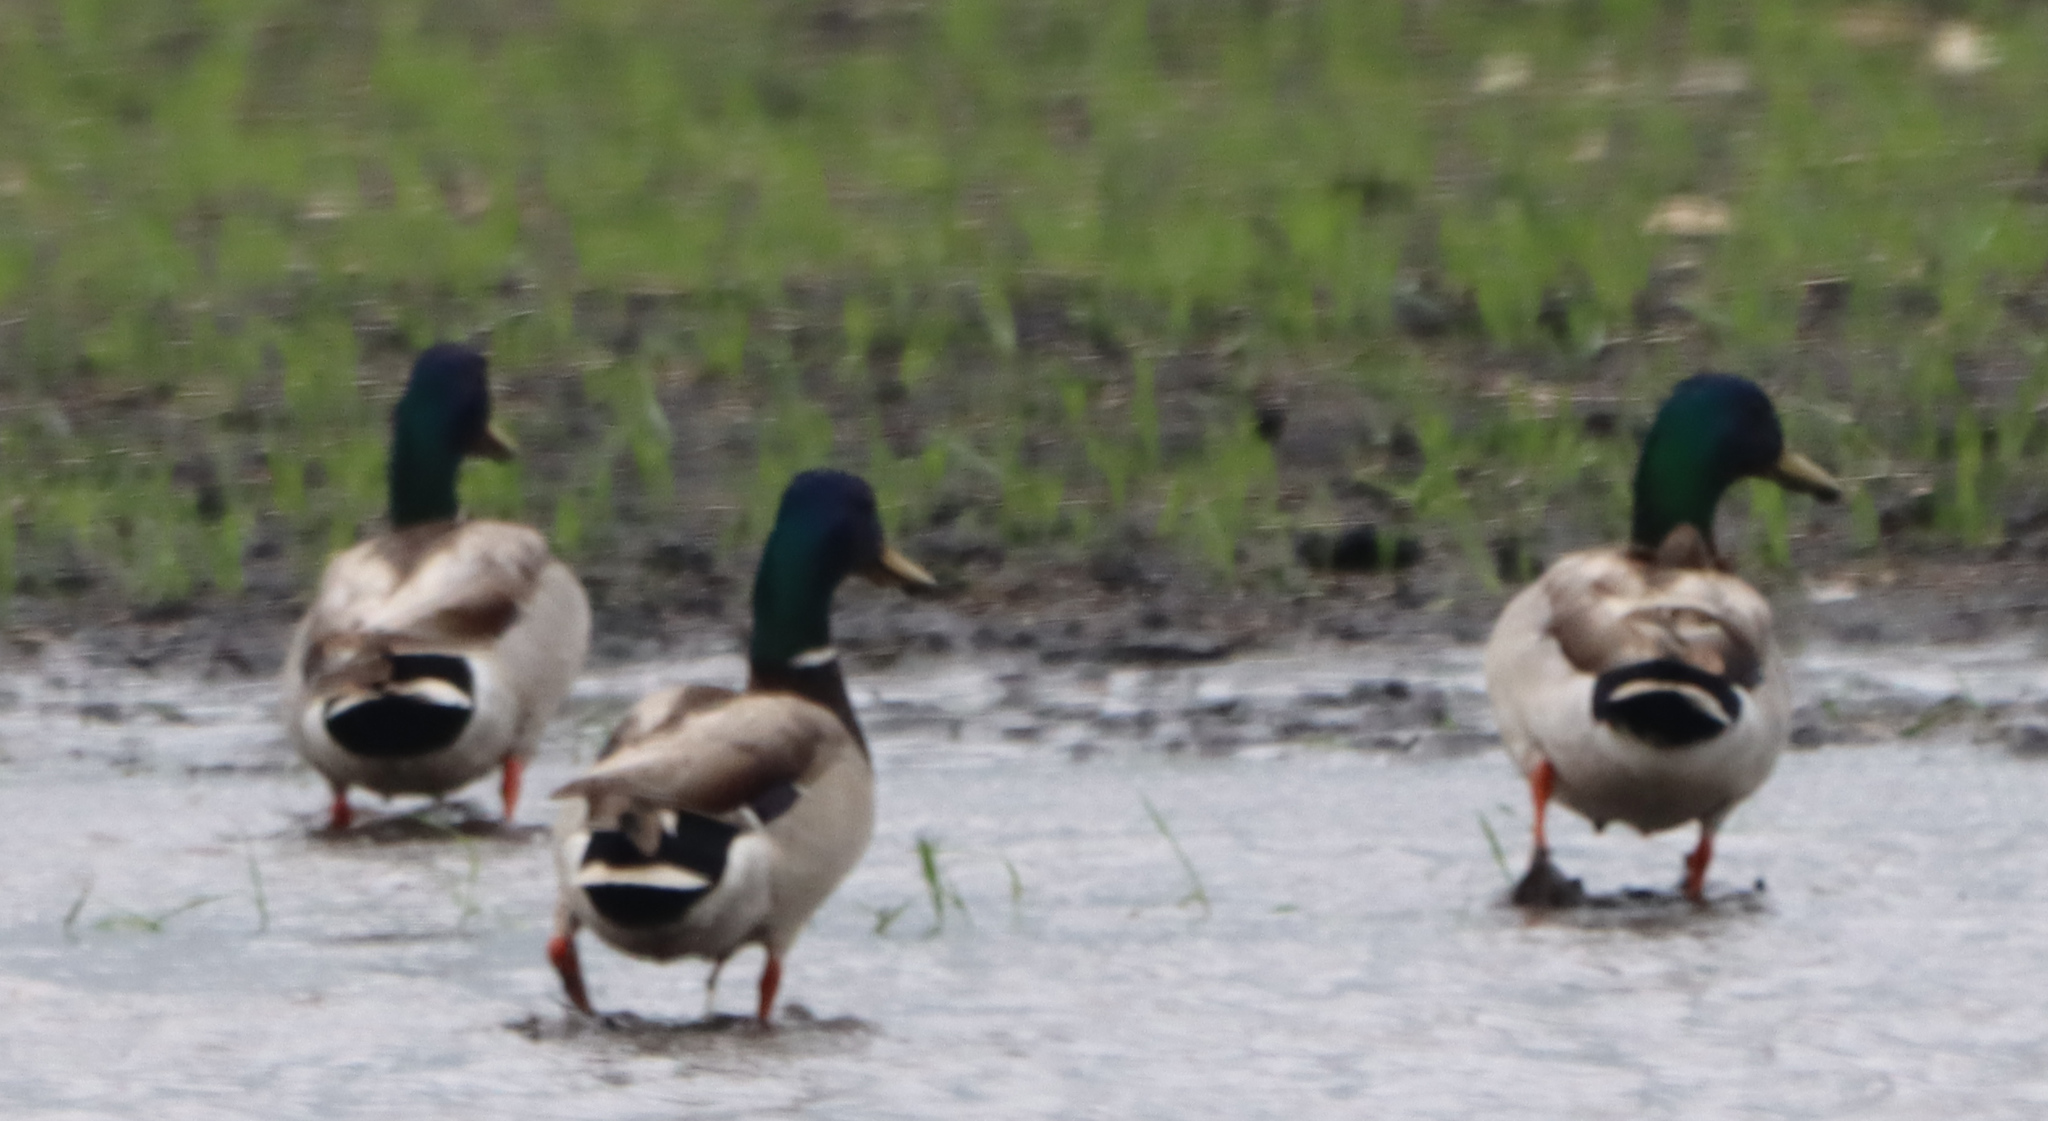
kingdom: Animalia
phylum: Chordata
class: Aves
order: Anseriformes
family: Anatidae
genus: Anas
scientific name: Anas platyrhynchos
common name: Mallard
